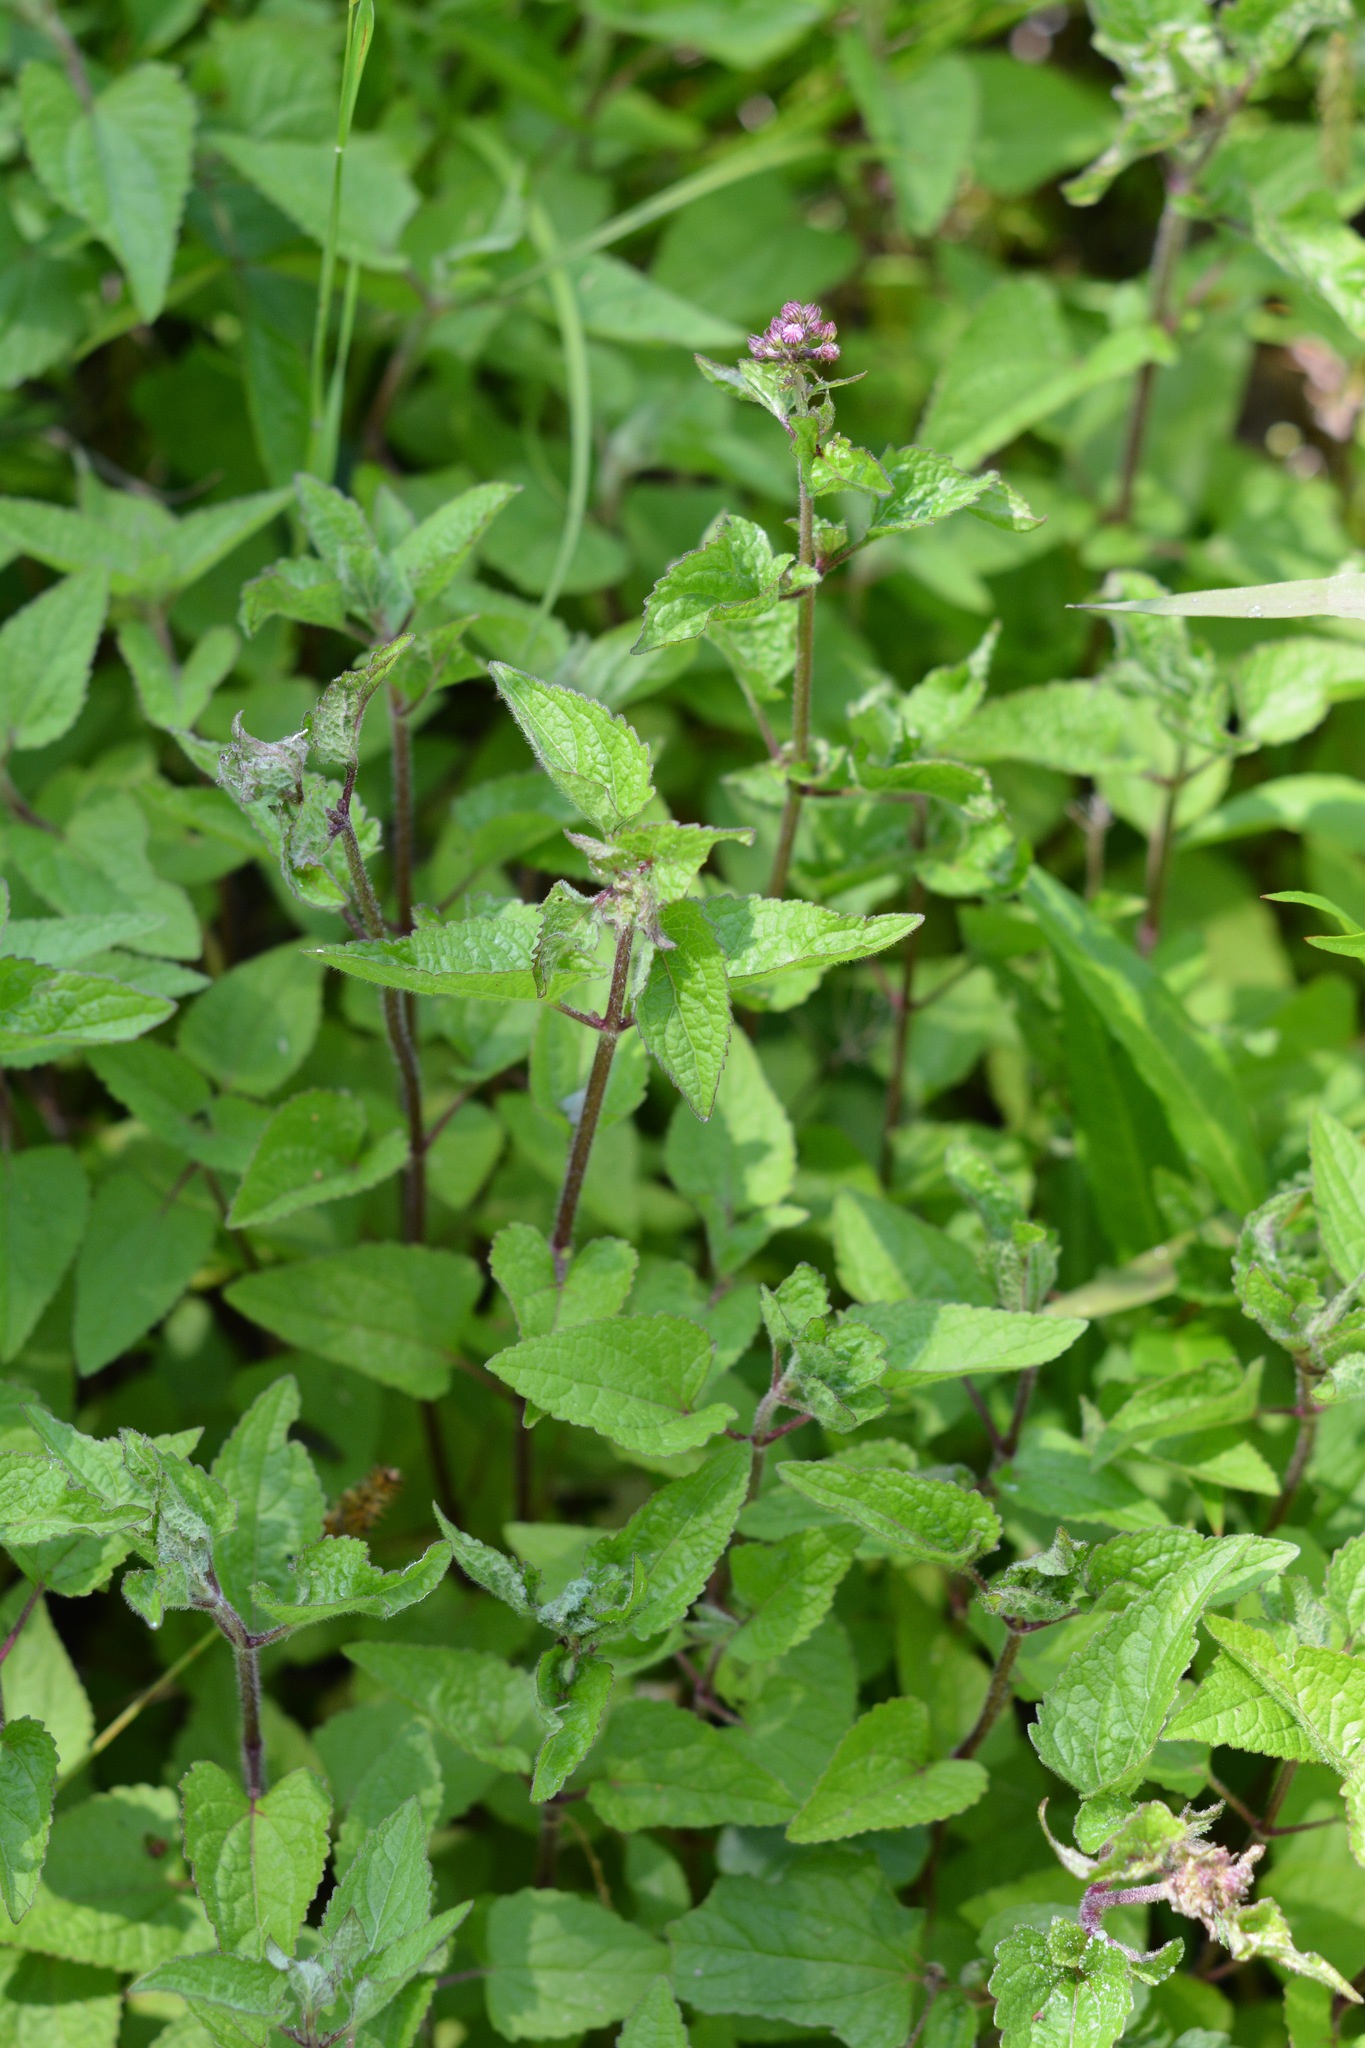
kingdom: Plantae
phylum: Tracheophyta
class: Magnoliopsida
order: Asterales
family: Asteraceae
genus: Conoclinium
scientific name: Conoclinium coelestinum
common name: Blue mistflower
